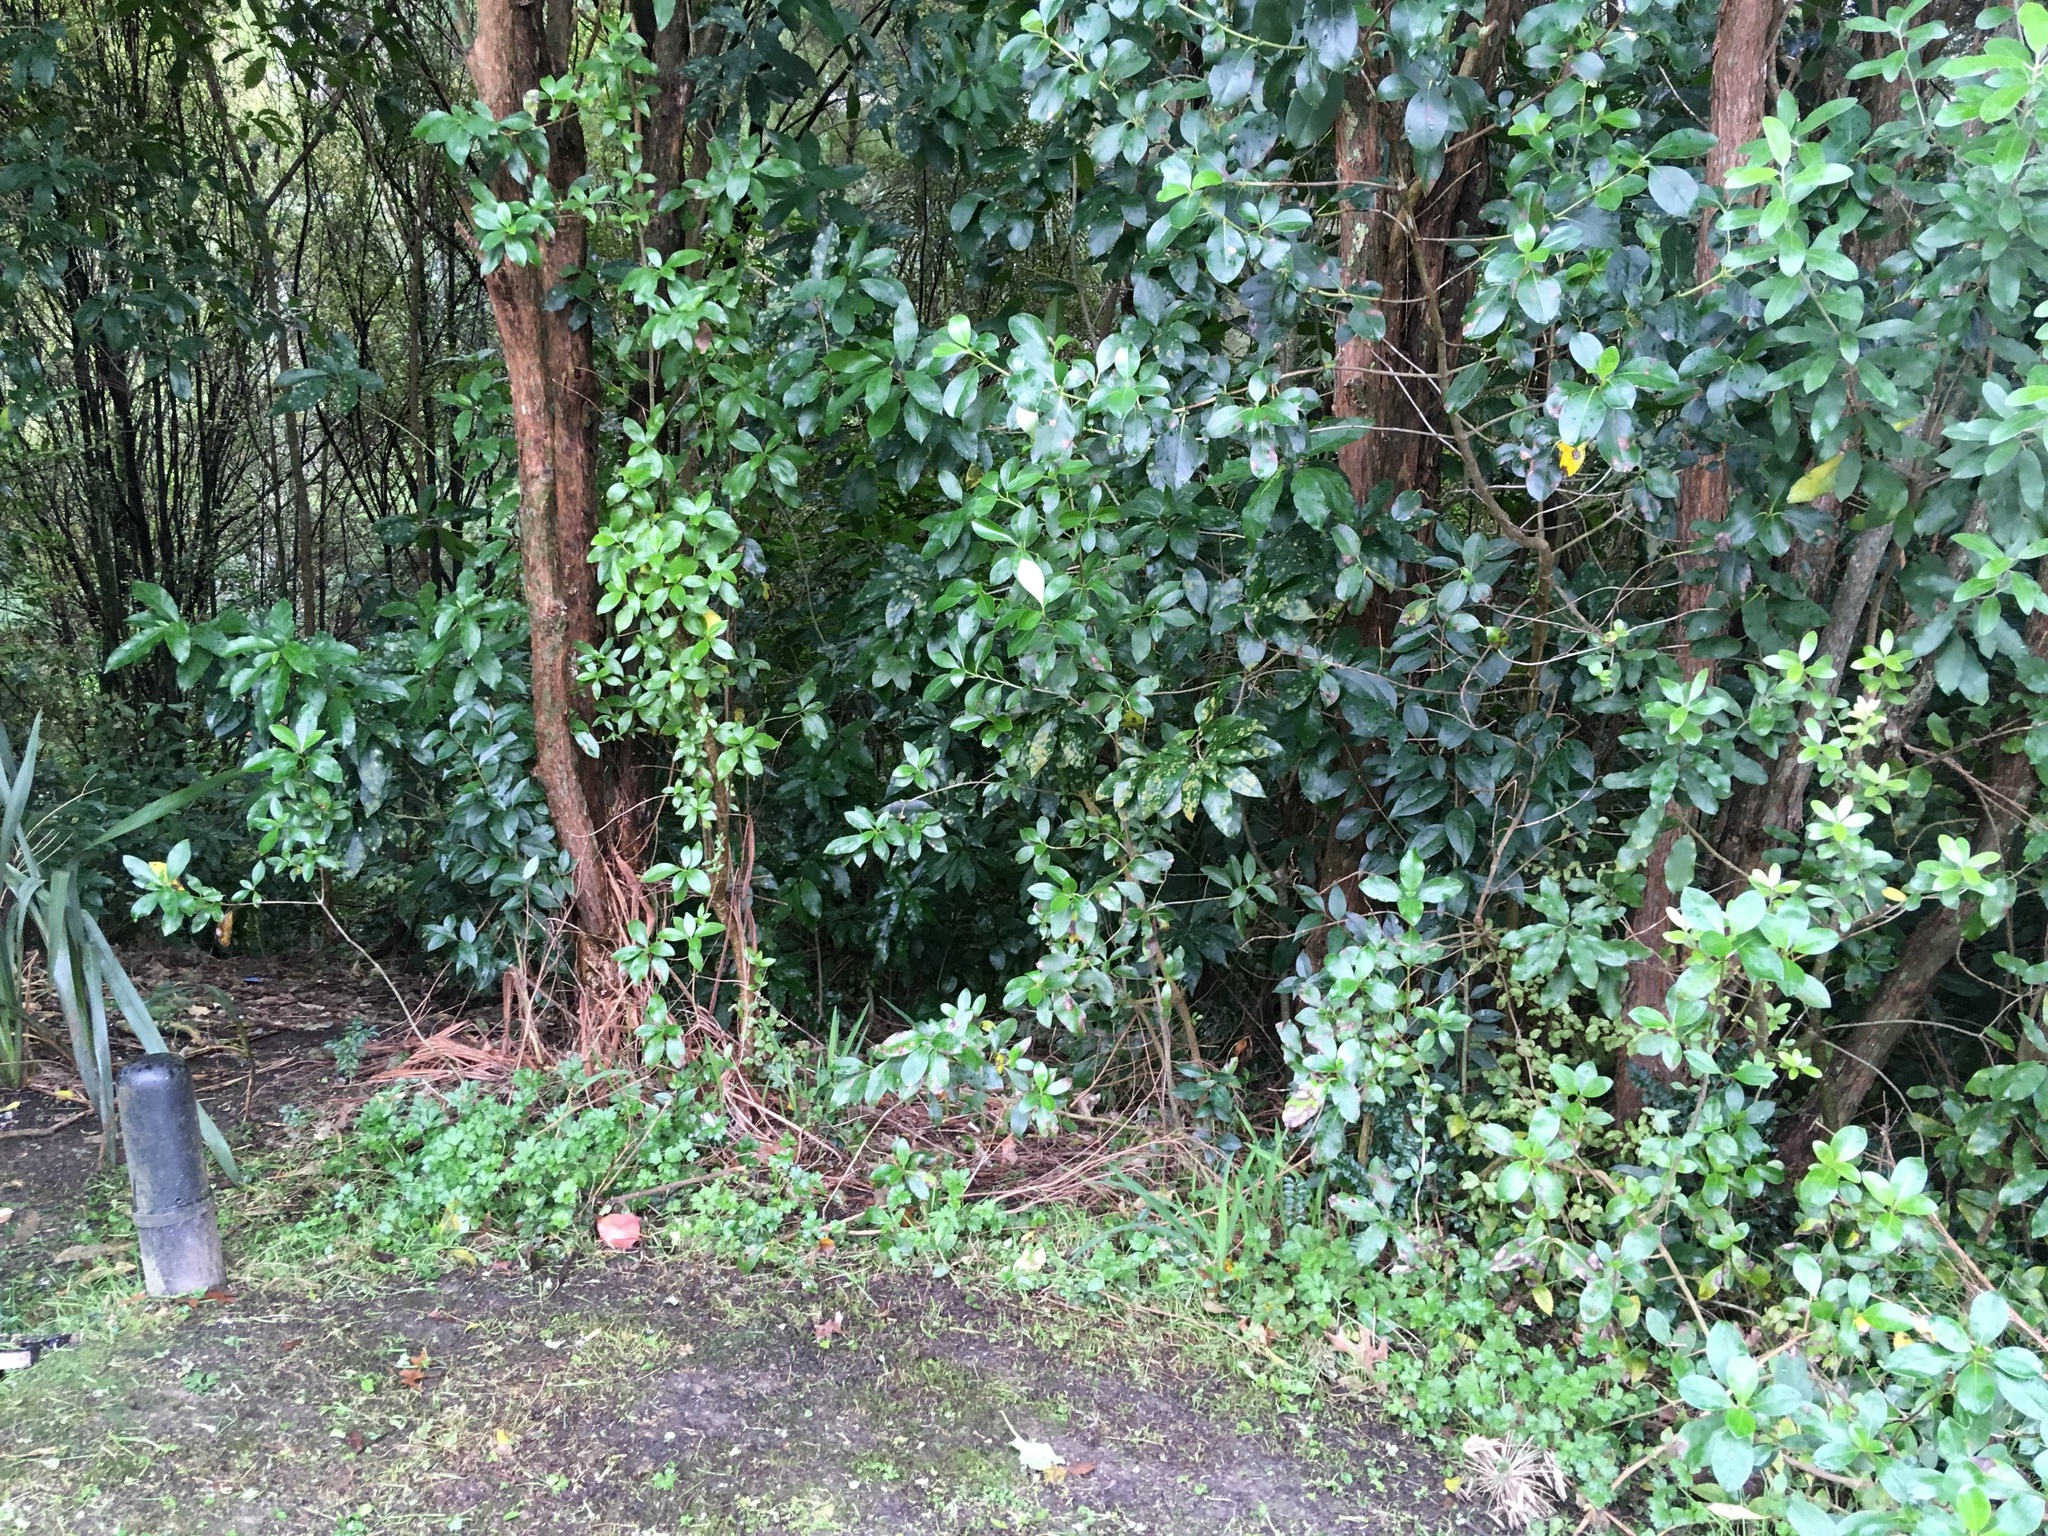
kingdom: Plantae
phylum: Tracheophyta
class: Magnoliopsida
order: Malpighiales
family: Violaceae
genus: Melicytus
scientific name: Melicytus ramiflorus
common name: Mahoe
